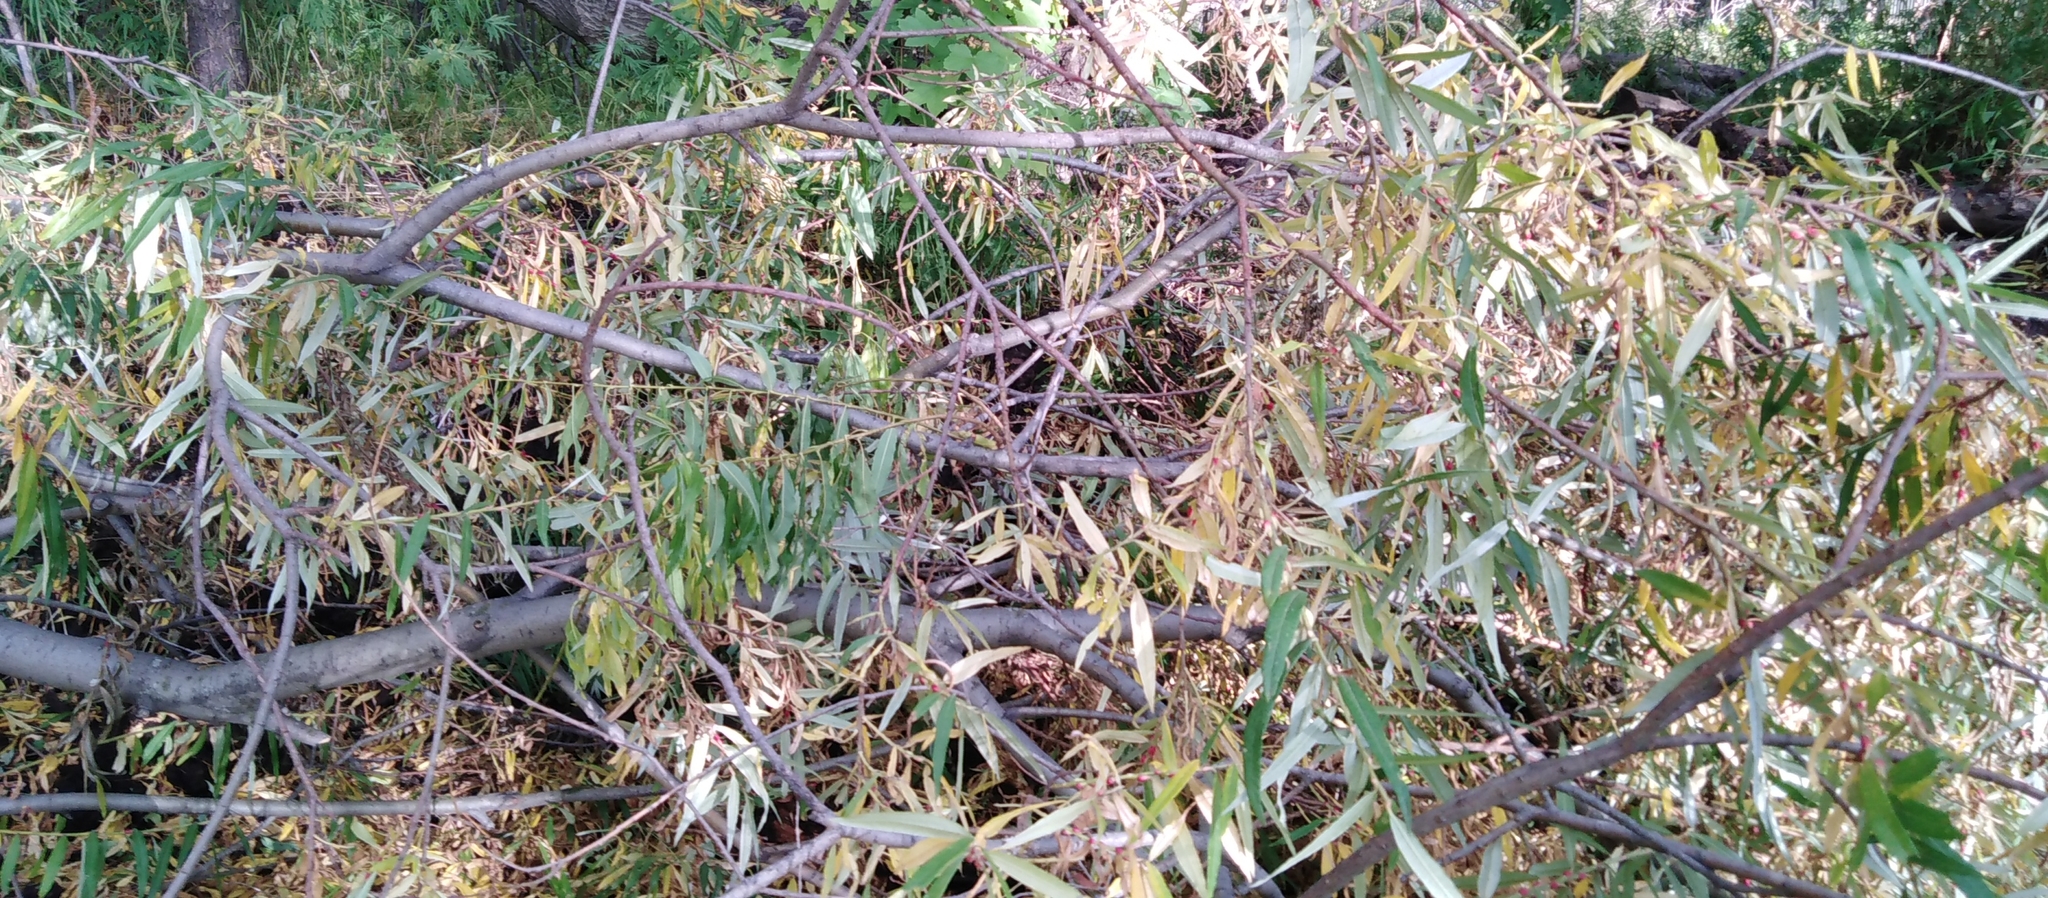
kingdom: Plantae
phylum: Tracheophyta
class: Magnoliopsida
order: Malpighiales
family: Salicaceae
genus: Salix
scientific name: Salix schwerinii
